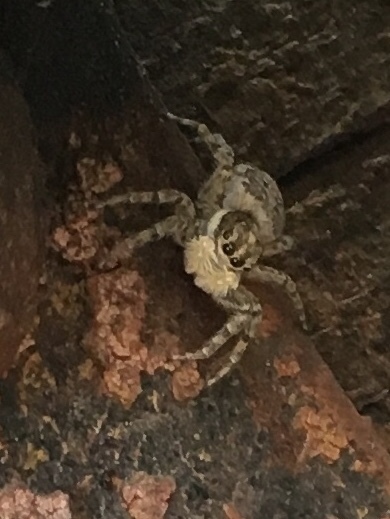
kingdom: Animalia
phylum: Arthropoda
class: Arachnida
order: Araneae
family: Salticidae
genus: Menemerus
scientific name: Menemerus semilimbatus
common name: Jumping spider
